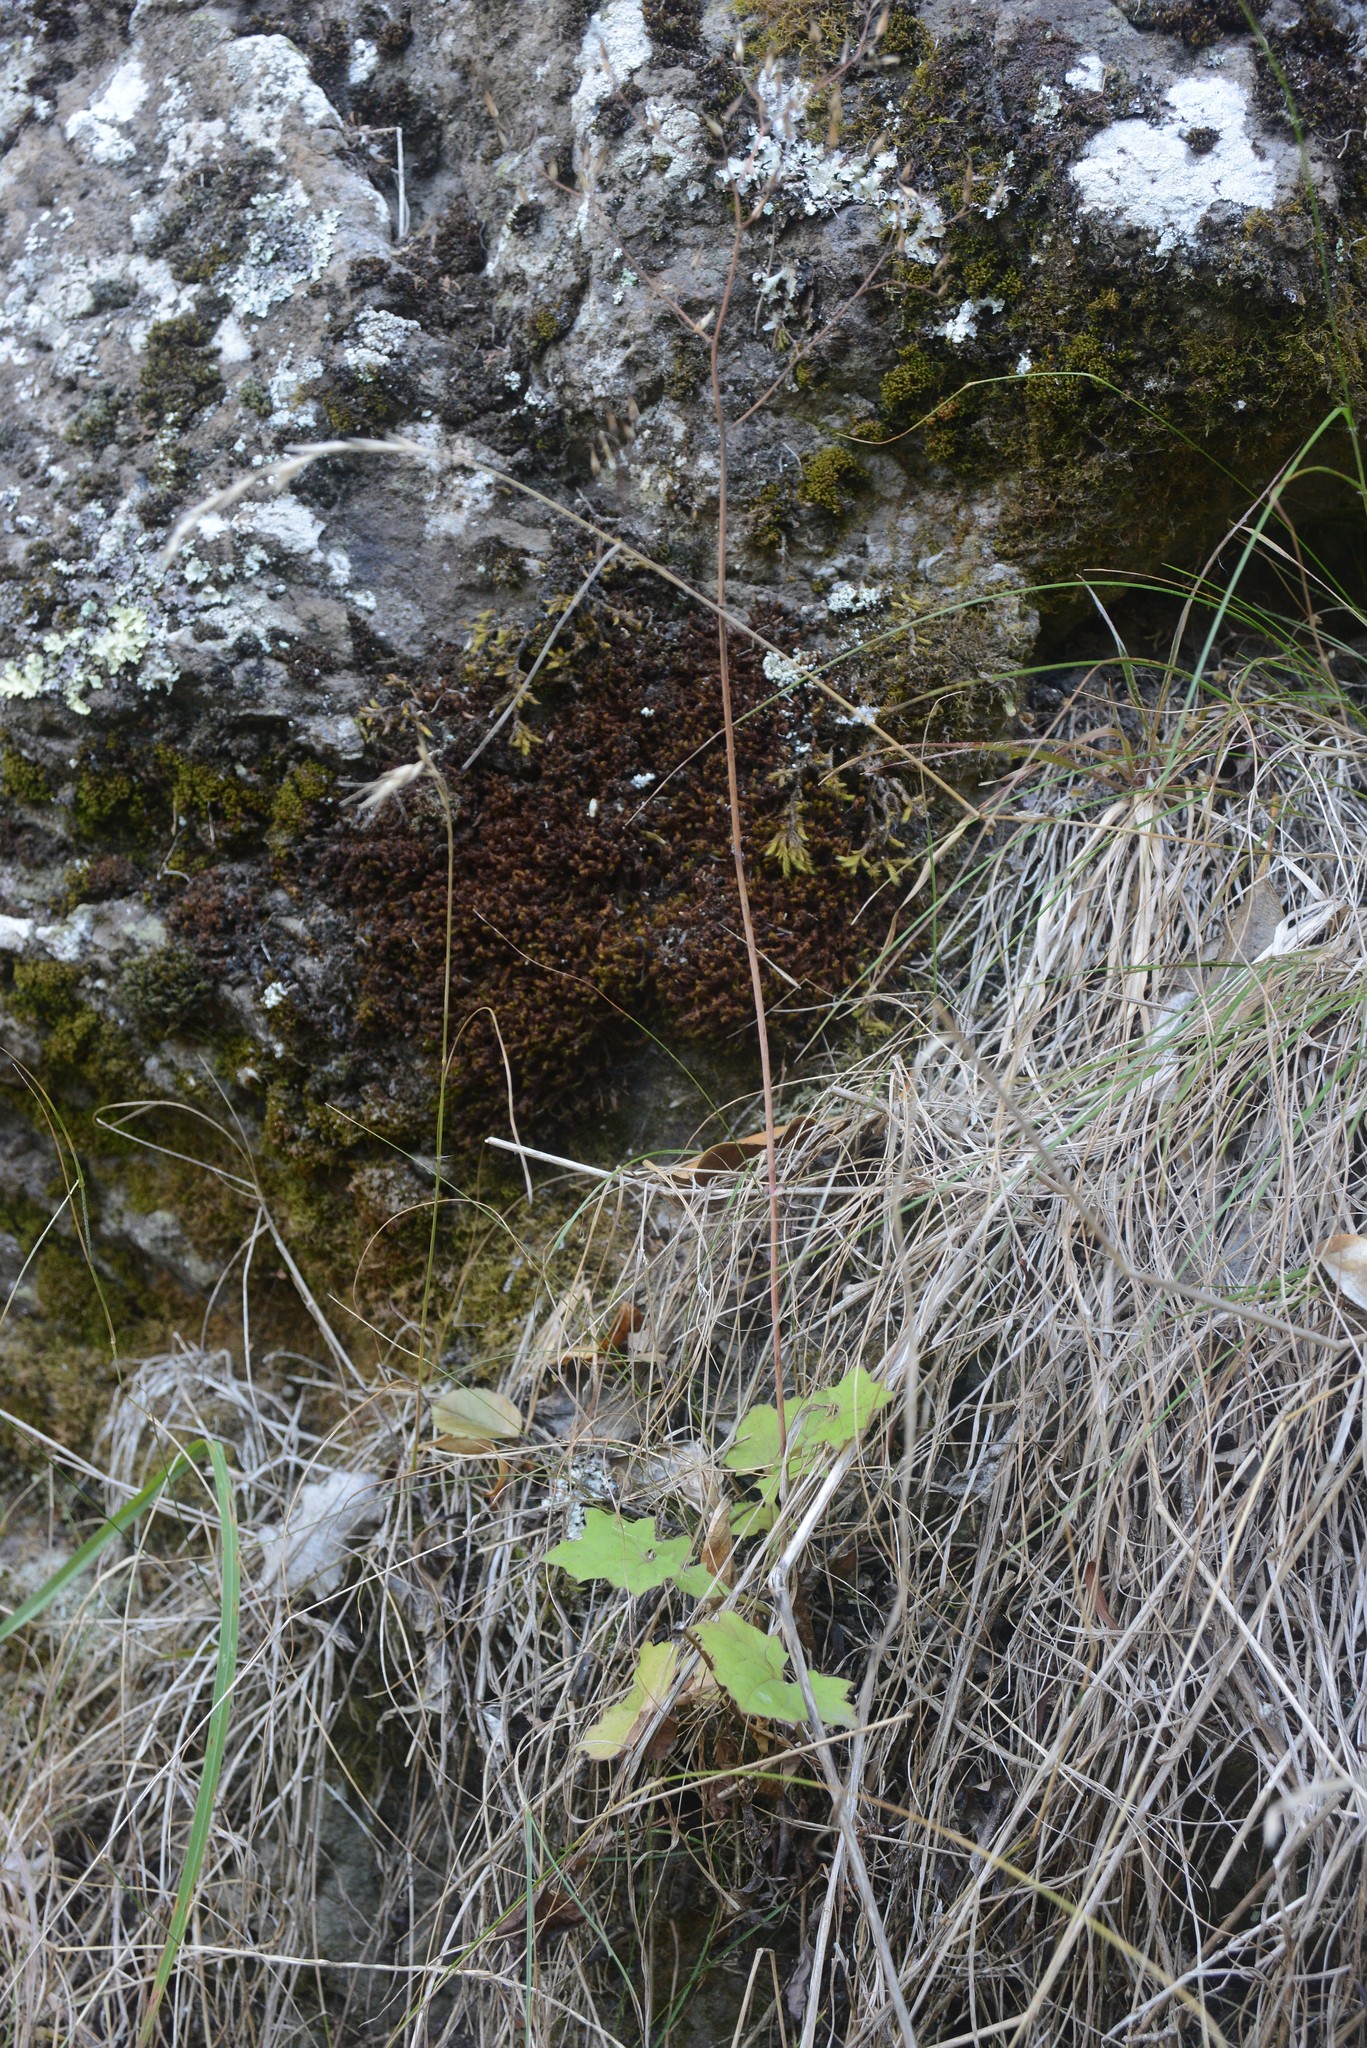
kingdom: Plantae
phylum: Tracheophyta
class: Magnoliopsida
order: Asterales
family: Asteraceae
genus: Mycelis
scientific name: Mycelis muralis
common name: Wall lettuce
